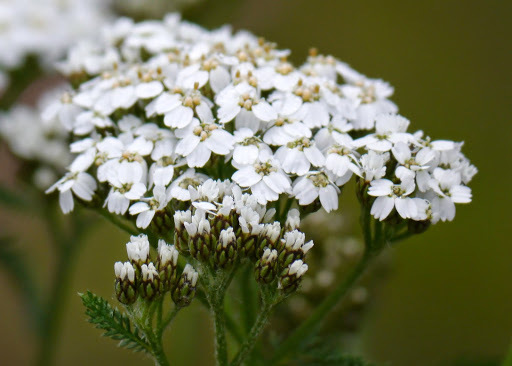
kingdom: Plantae
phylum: Tracheophyta
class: Magnoliopsida
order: Asterales
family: Asteraceae
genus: Achillea
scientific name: Achillea millefolium
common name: Yarrow
